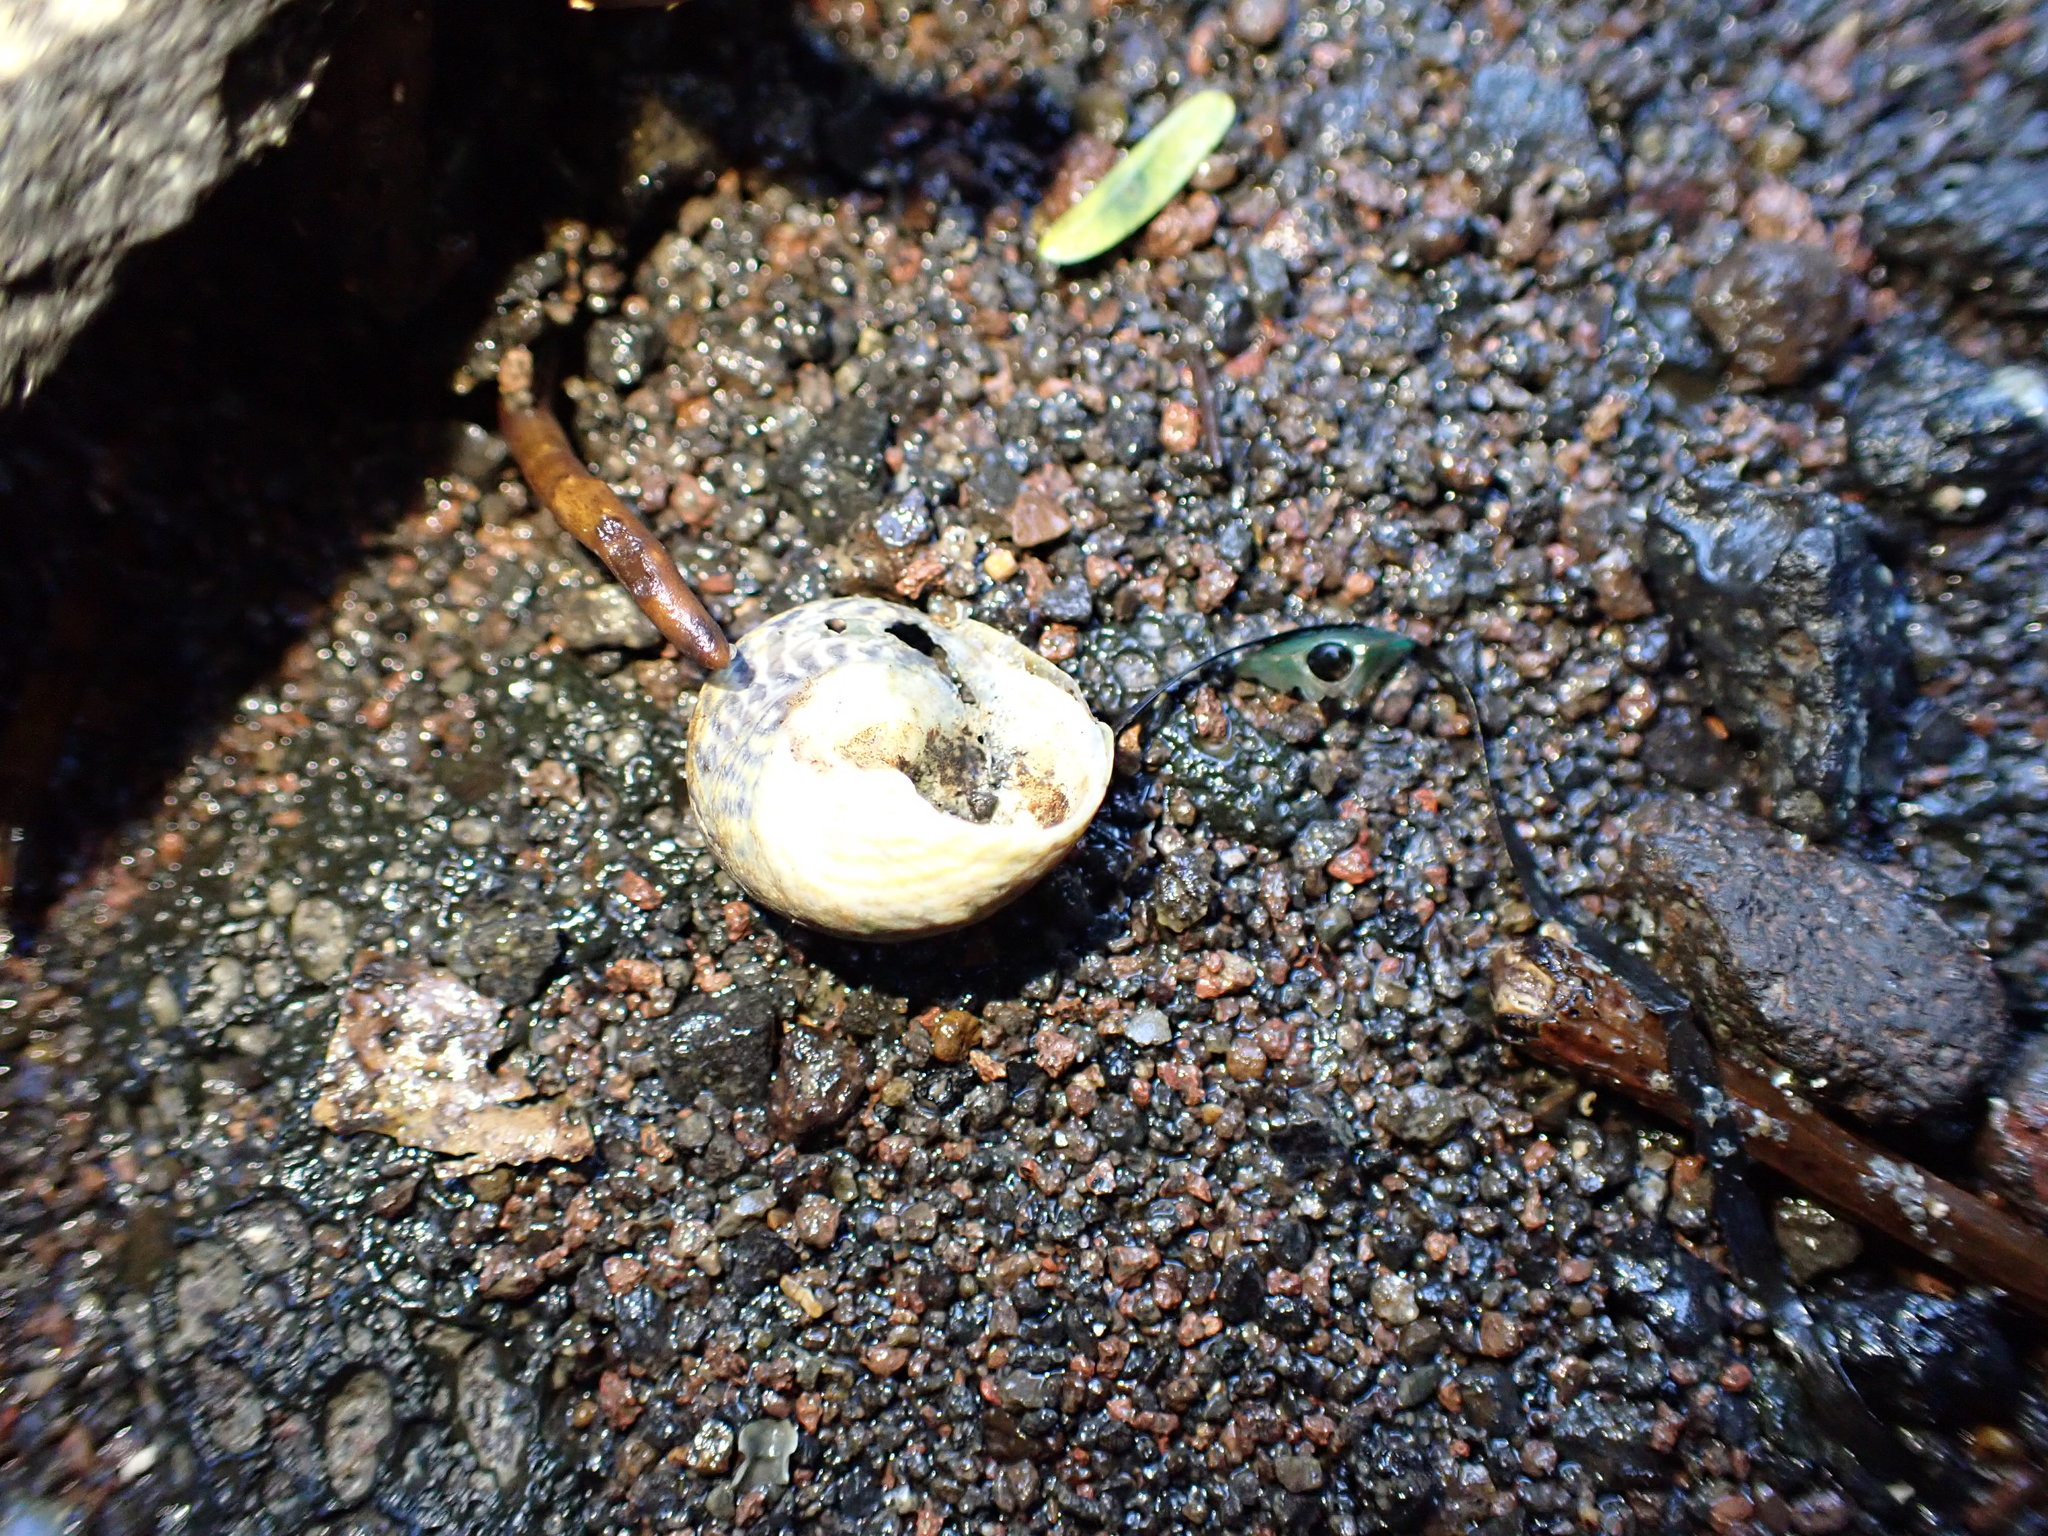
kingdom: Animalia
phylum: Mollusca
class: Gastropoda
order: Trochida
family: Trochidae
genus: Diloma
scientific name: Diloma subrostratum
